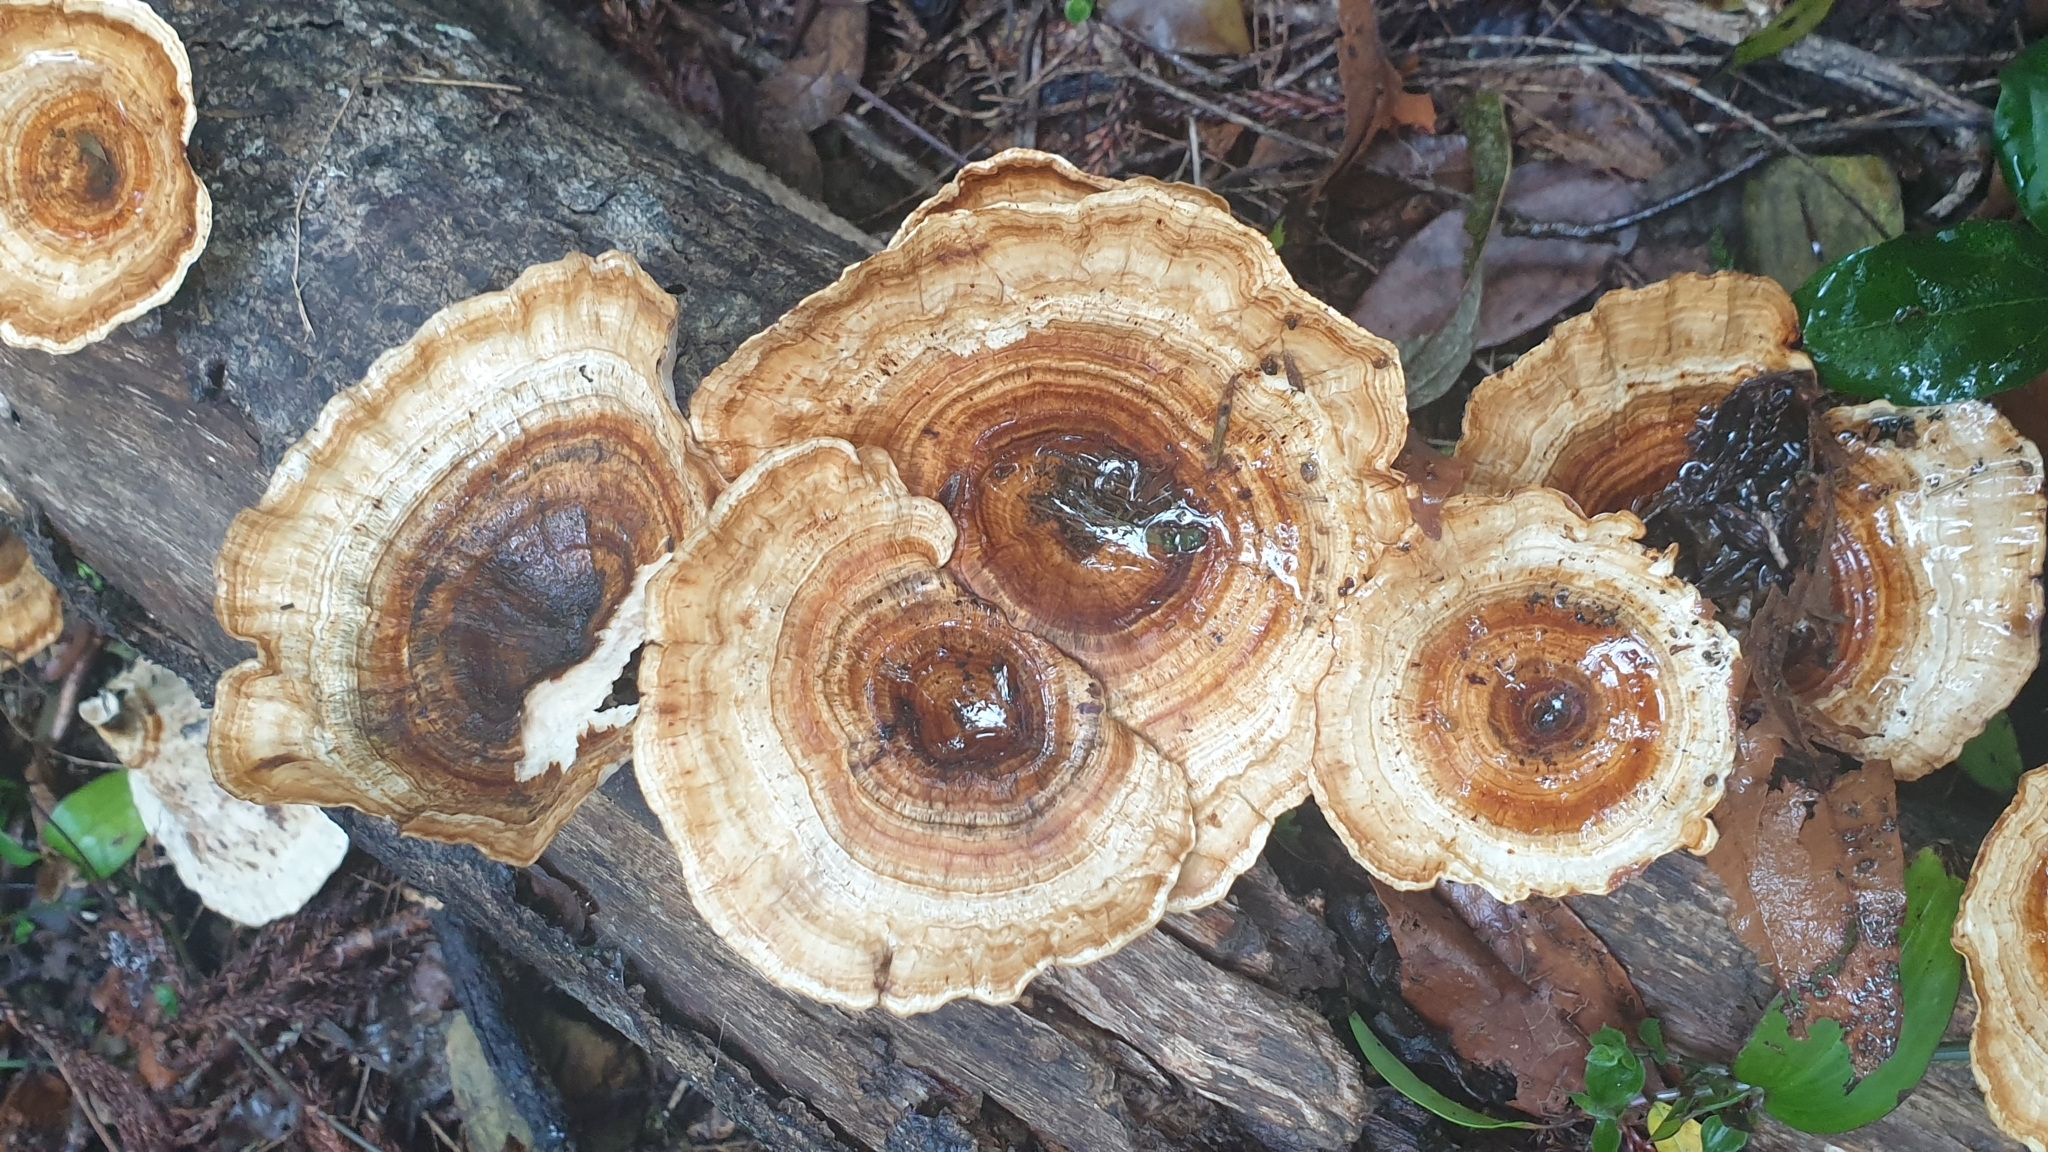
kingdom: Fungi
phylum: Basidiomycota
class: Agaricomycetes
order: Polyporales
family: Polyporaceae
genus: Microporus
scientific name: Microporus xanthopus
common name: Yellow-stemmed micropore
